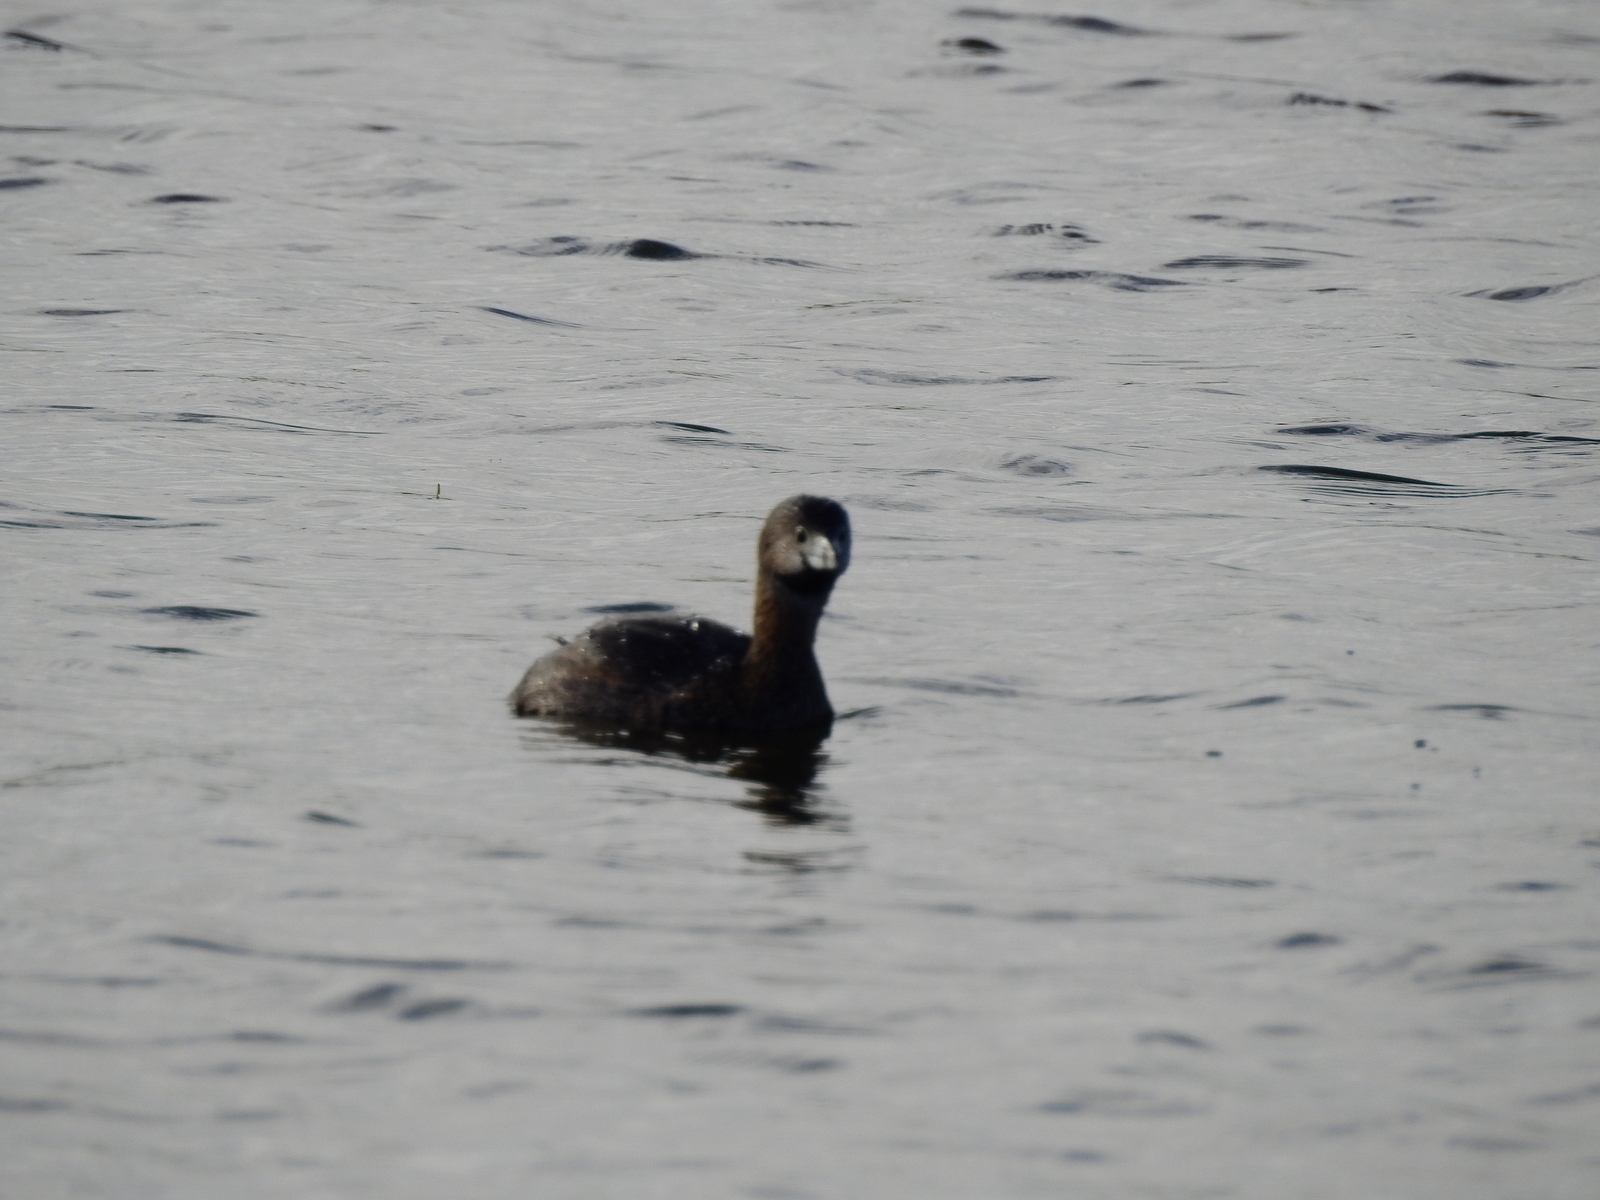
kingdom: Animalia
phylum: Chordata
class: Aves
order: Podicipediformes
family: Podicipedidae
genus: Podilymbus
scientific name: Podilymbus podiceps
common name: Pied-billed grebe
